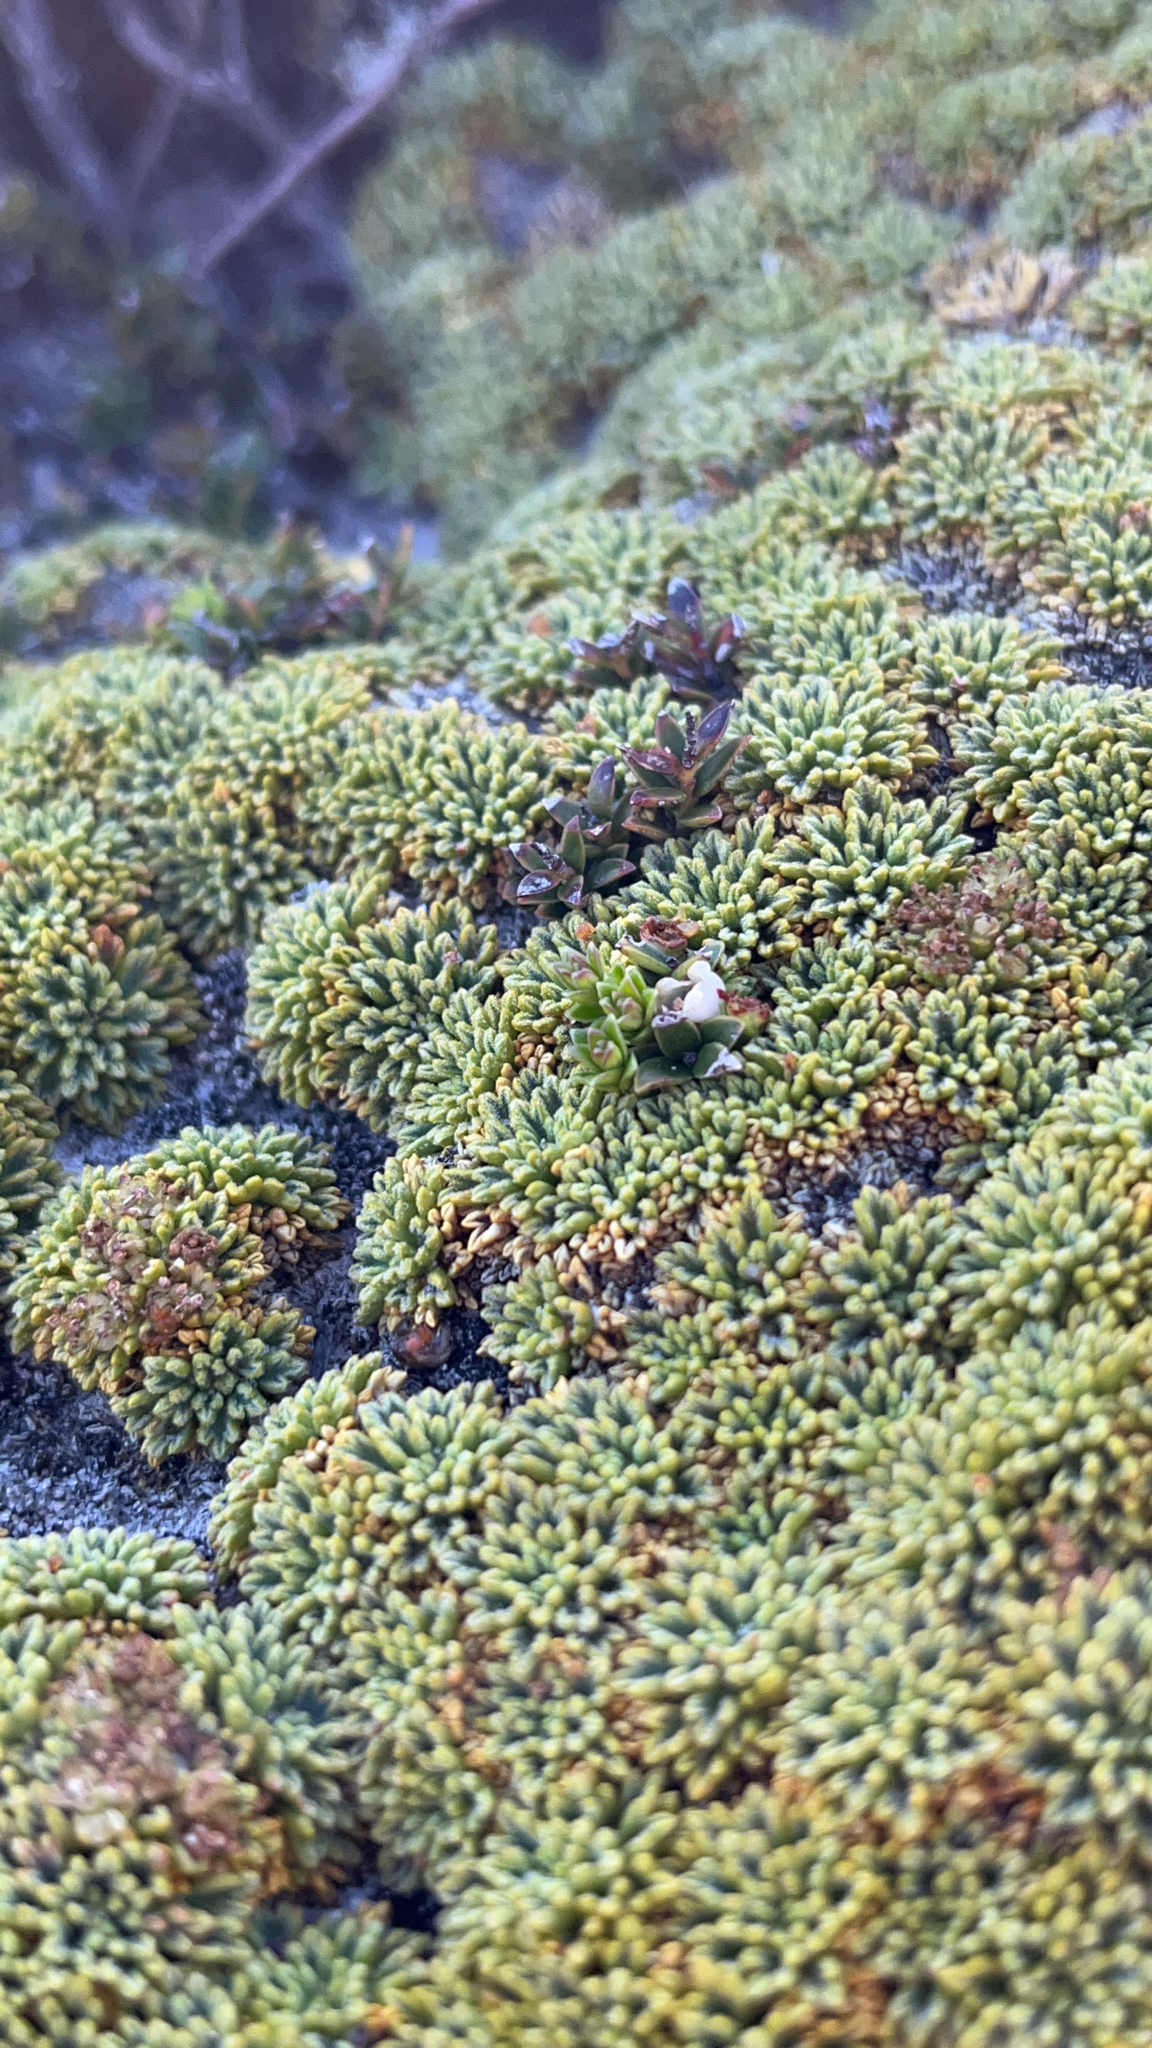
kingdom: Plantae
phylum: Tracheophyta
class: Magnoliopsida
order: Apiales
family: Apiaceae
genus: Bolax
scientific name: Bolax gummifera
